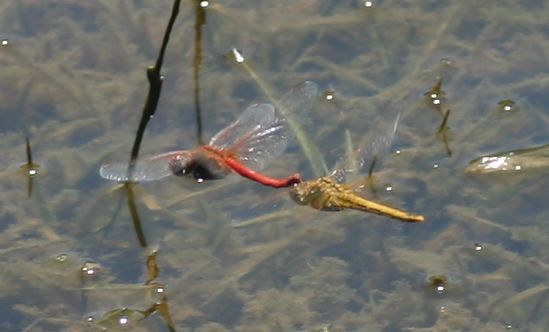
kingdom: Animalia
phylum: Arthropoda
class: Insecta
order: Odonata
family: Libellulidae
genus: Sympetrum
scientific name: Sympetrum fonscolombii
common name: Red-veined darter
